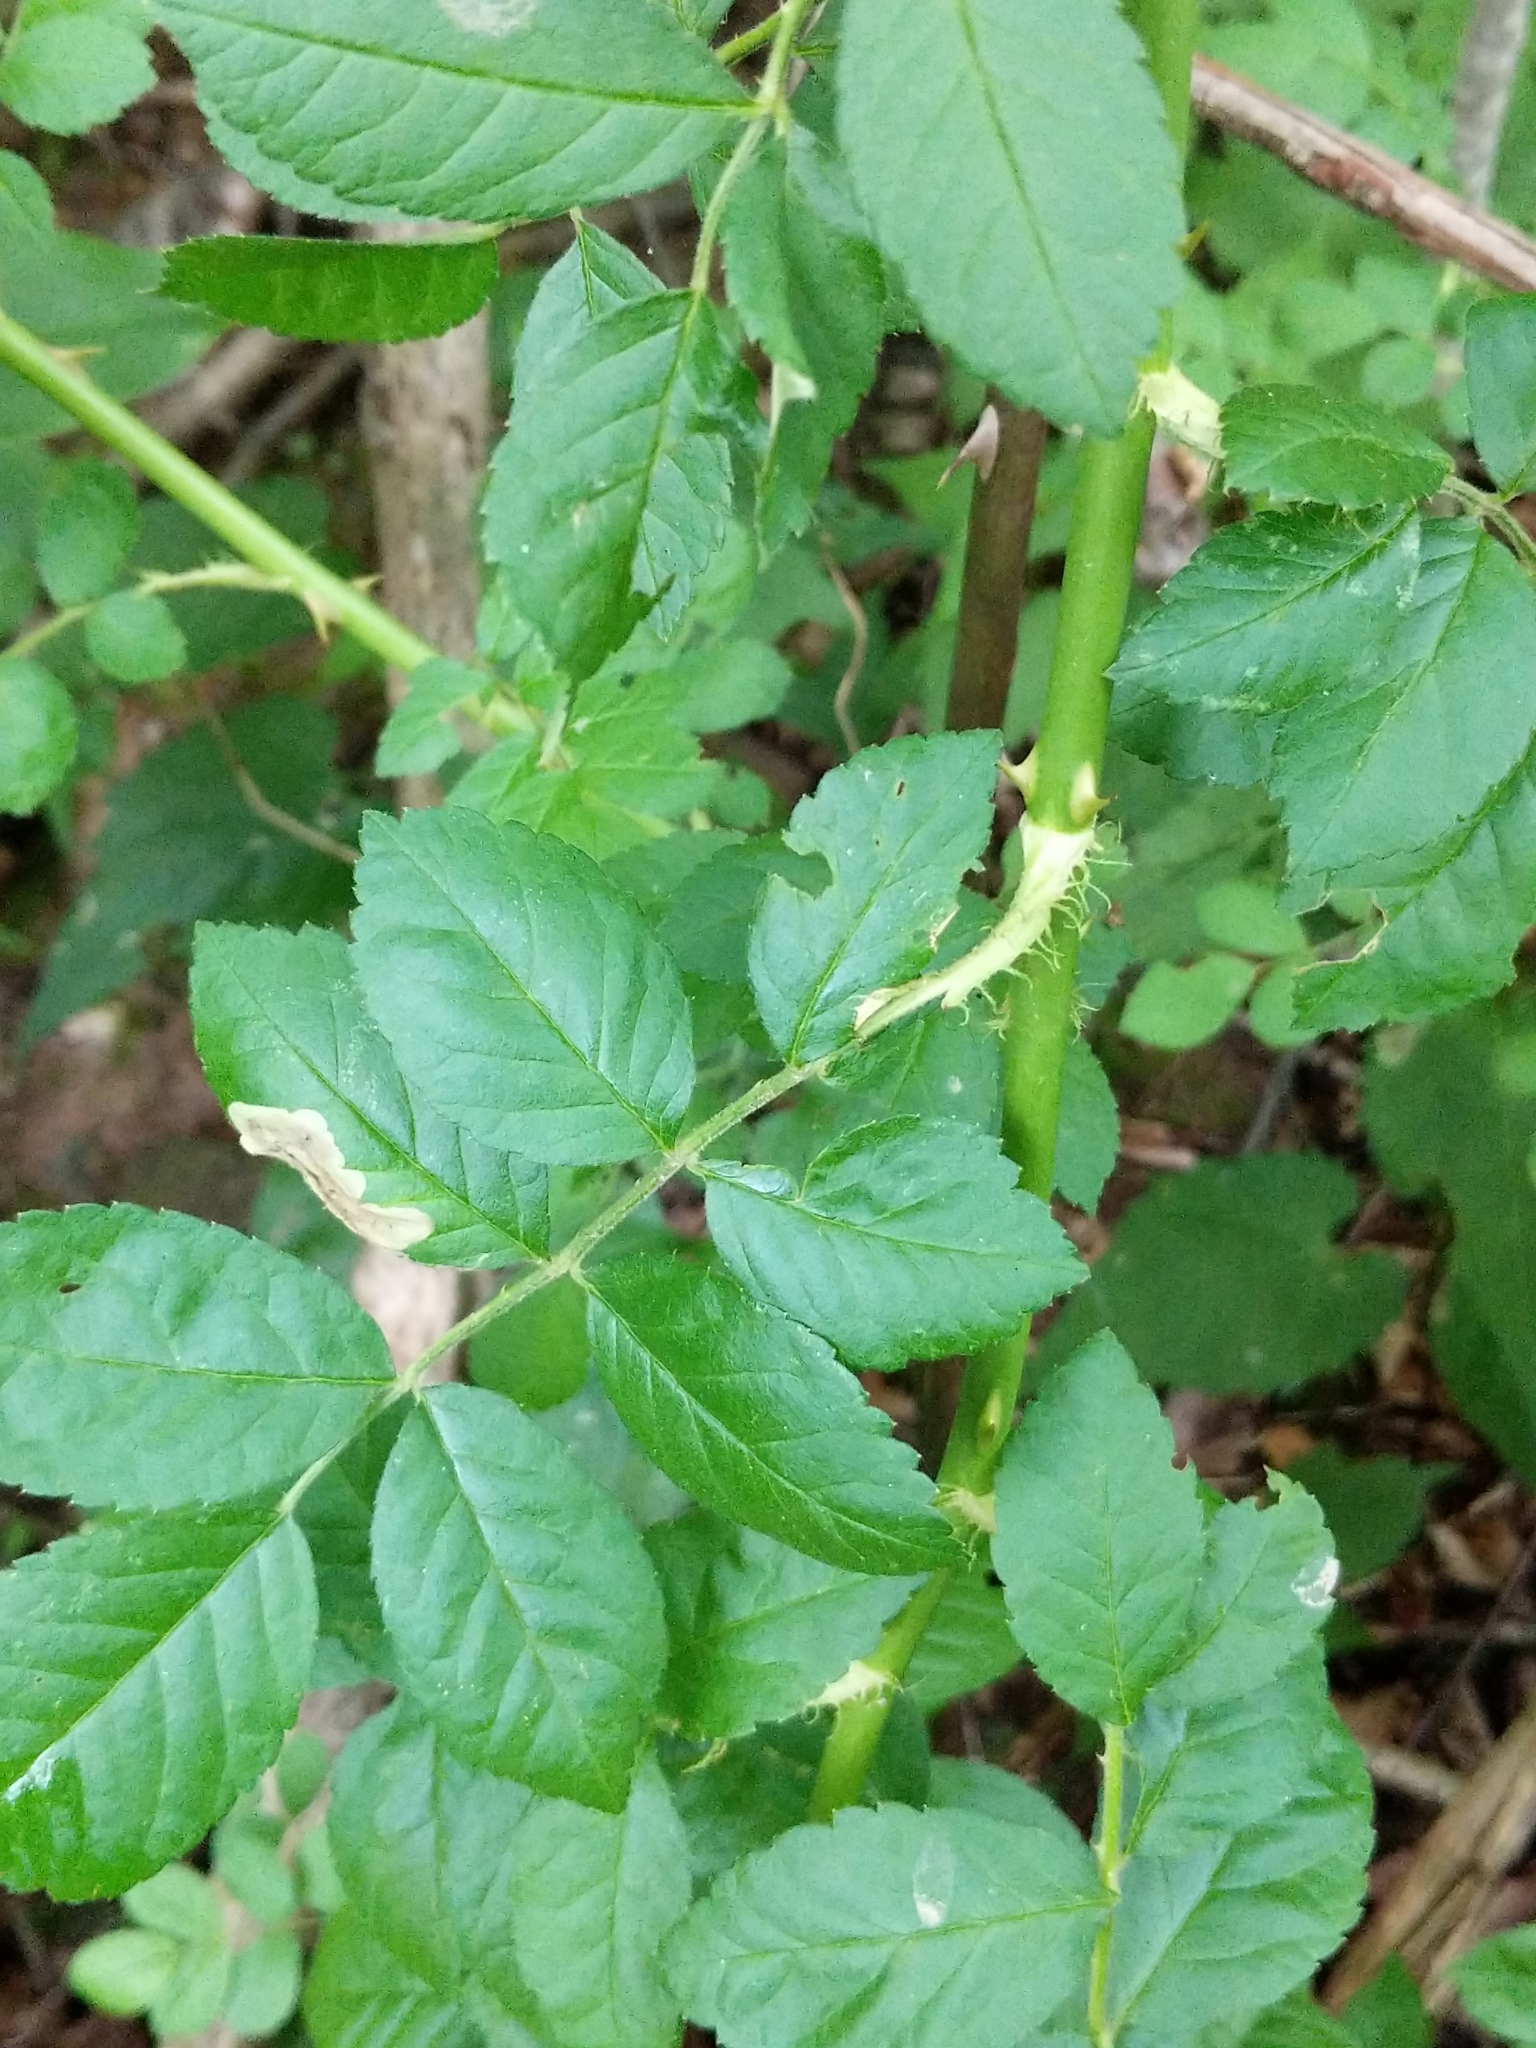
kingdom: Plantae
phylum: Tracheophyta
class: Magnoliopsida
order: Rosales
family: Rosaceae
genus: Rosa
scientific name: Rosa multiflora
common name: Multiflora rose
